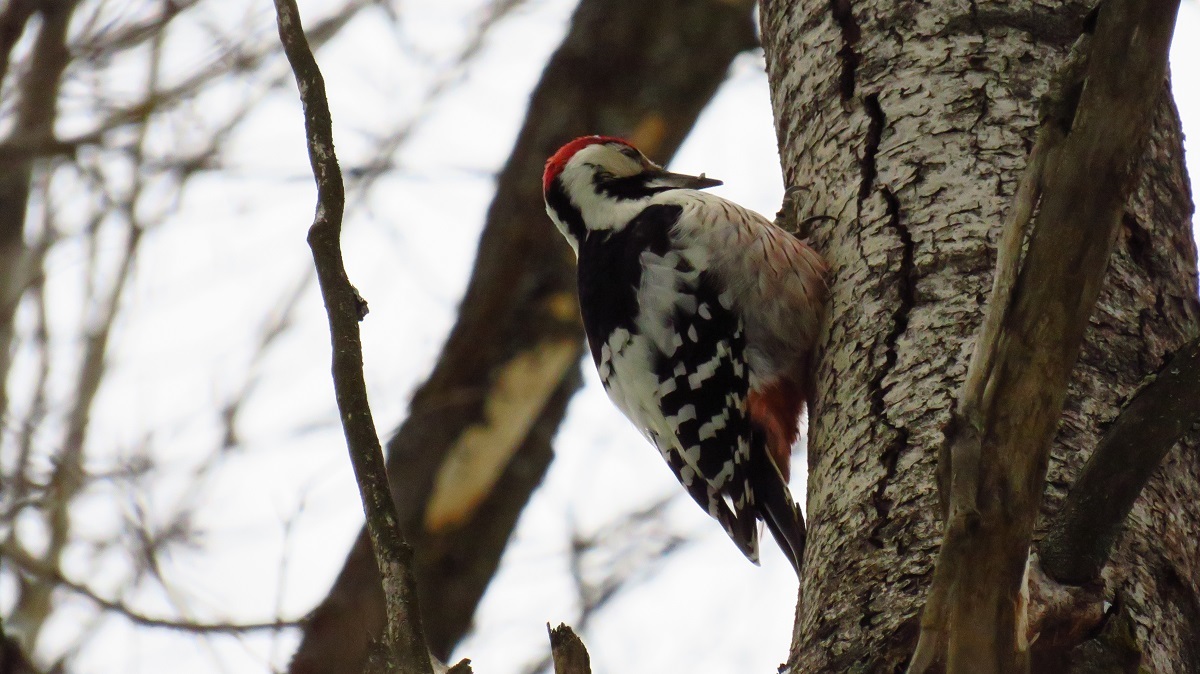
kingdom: Animalia
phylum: Chordata
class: Aves
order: Piciformes
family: Picidae
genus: Dendrocopos
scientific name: Dendrocopos leucotos
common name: White-backed woodpecker
